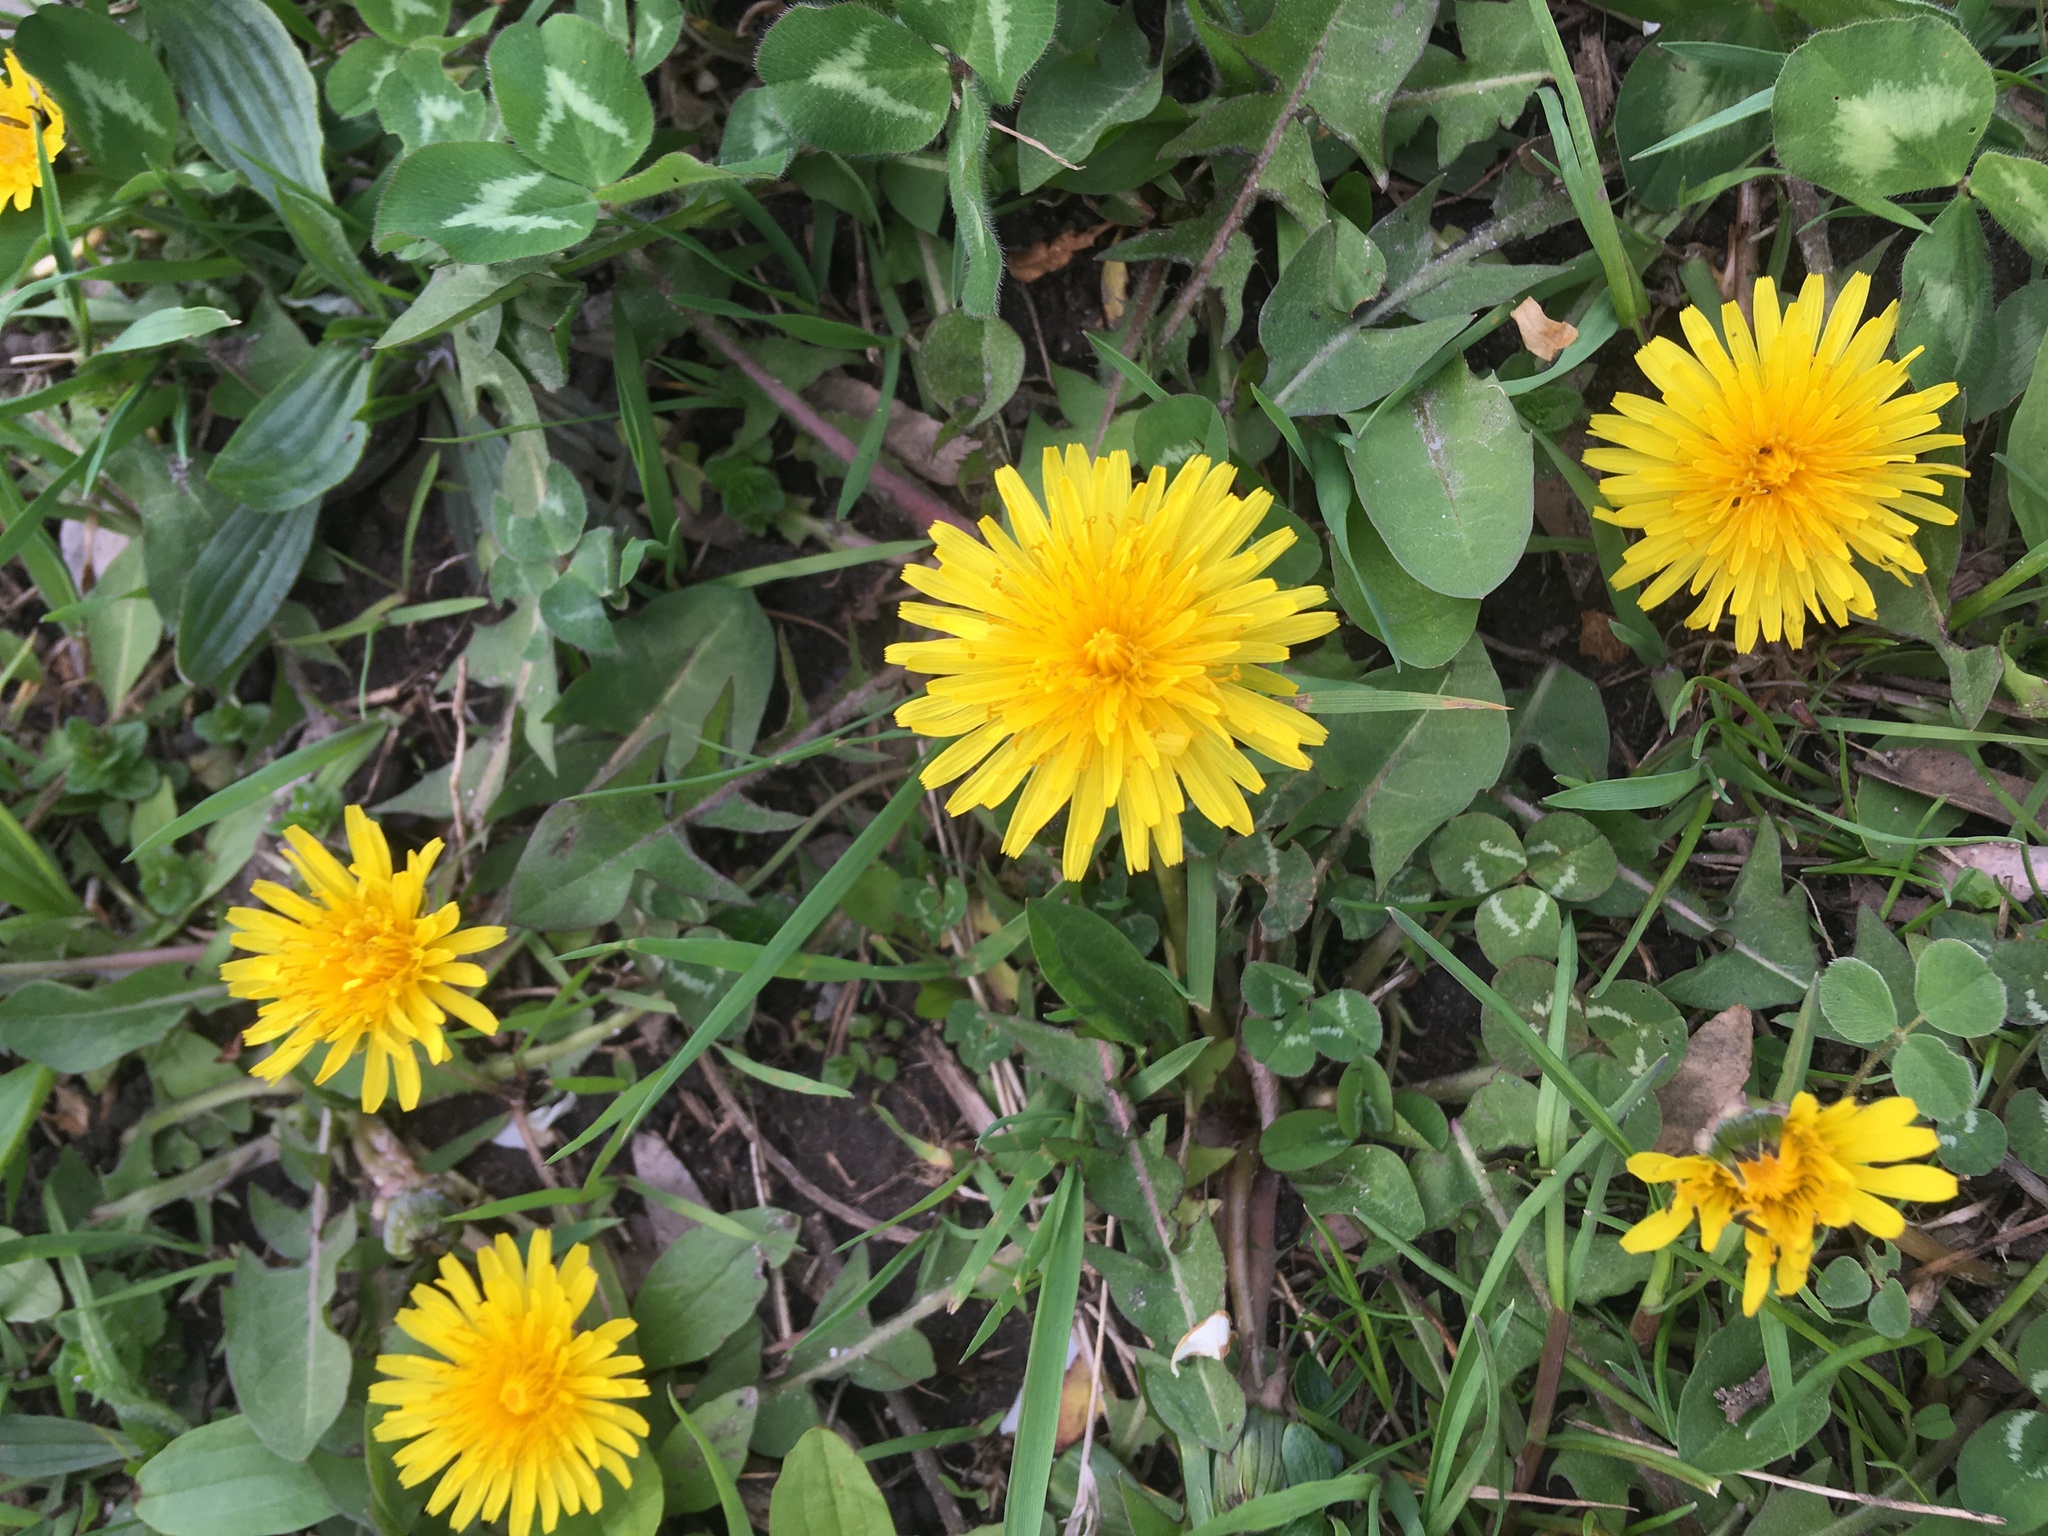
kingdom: Plantae
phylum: Tracheophyta
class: Magnoliopsida
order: Asterales
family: Asteraceae
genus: Taraxacum
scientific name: Taraxacum officinale
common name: Common dandelion
